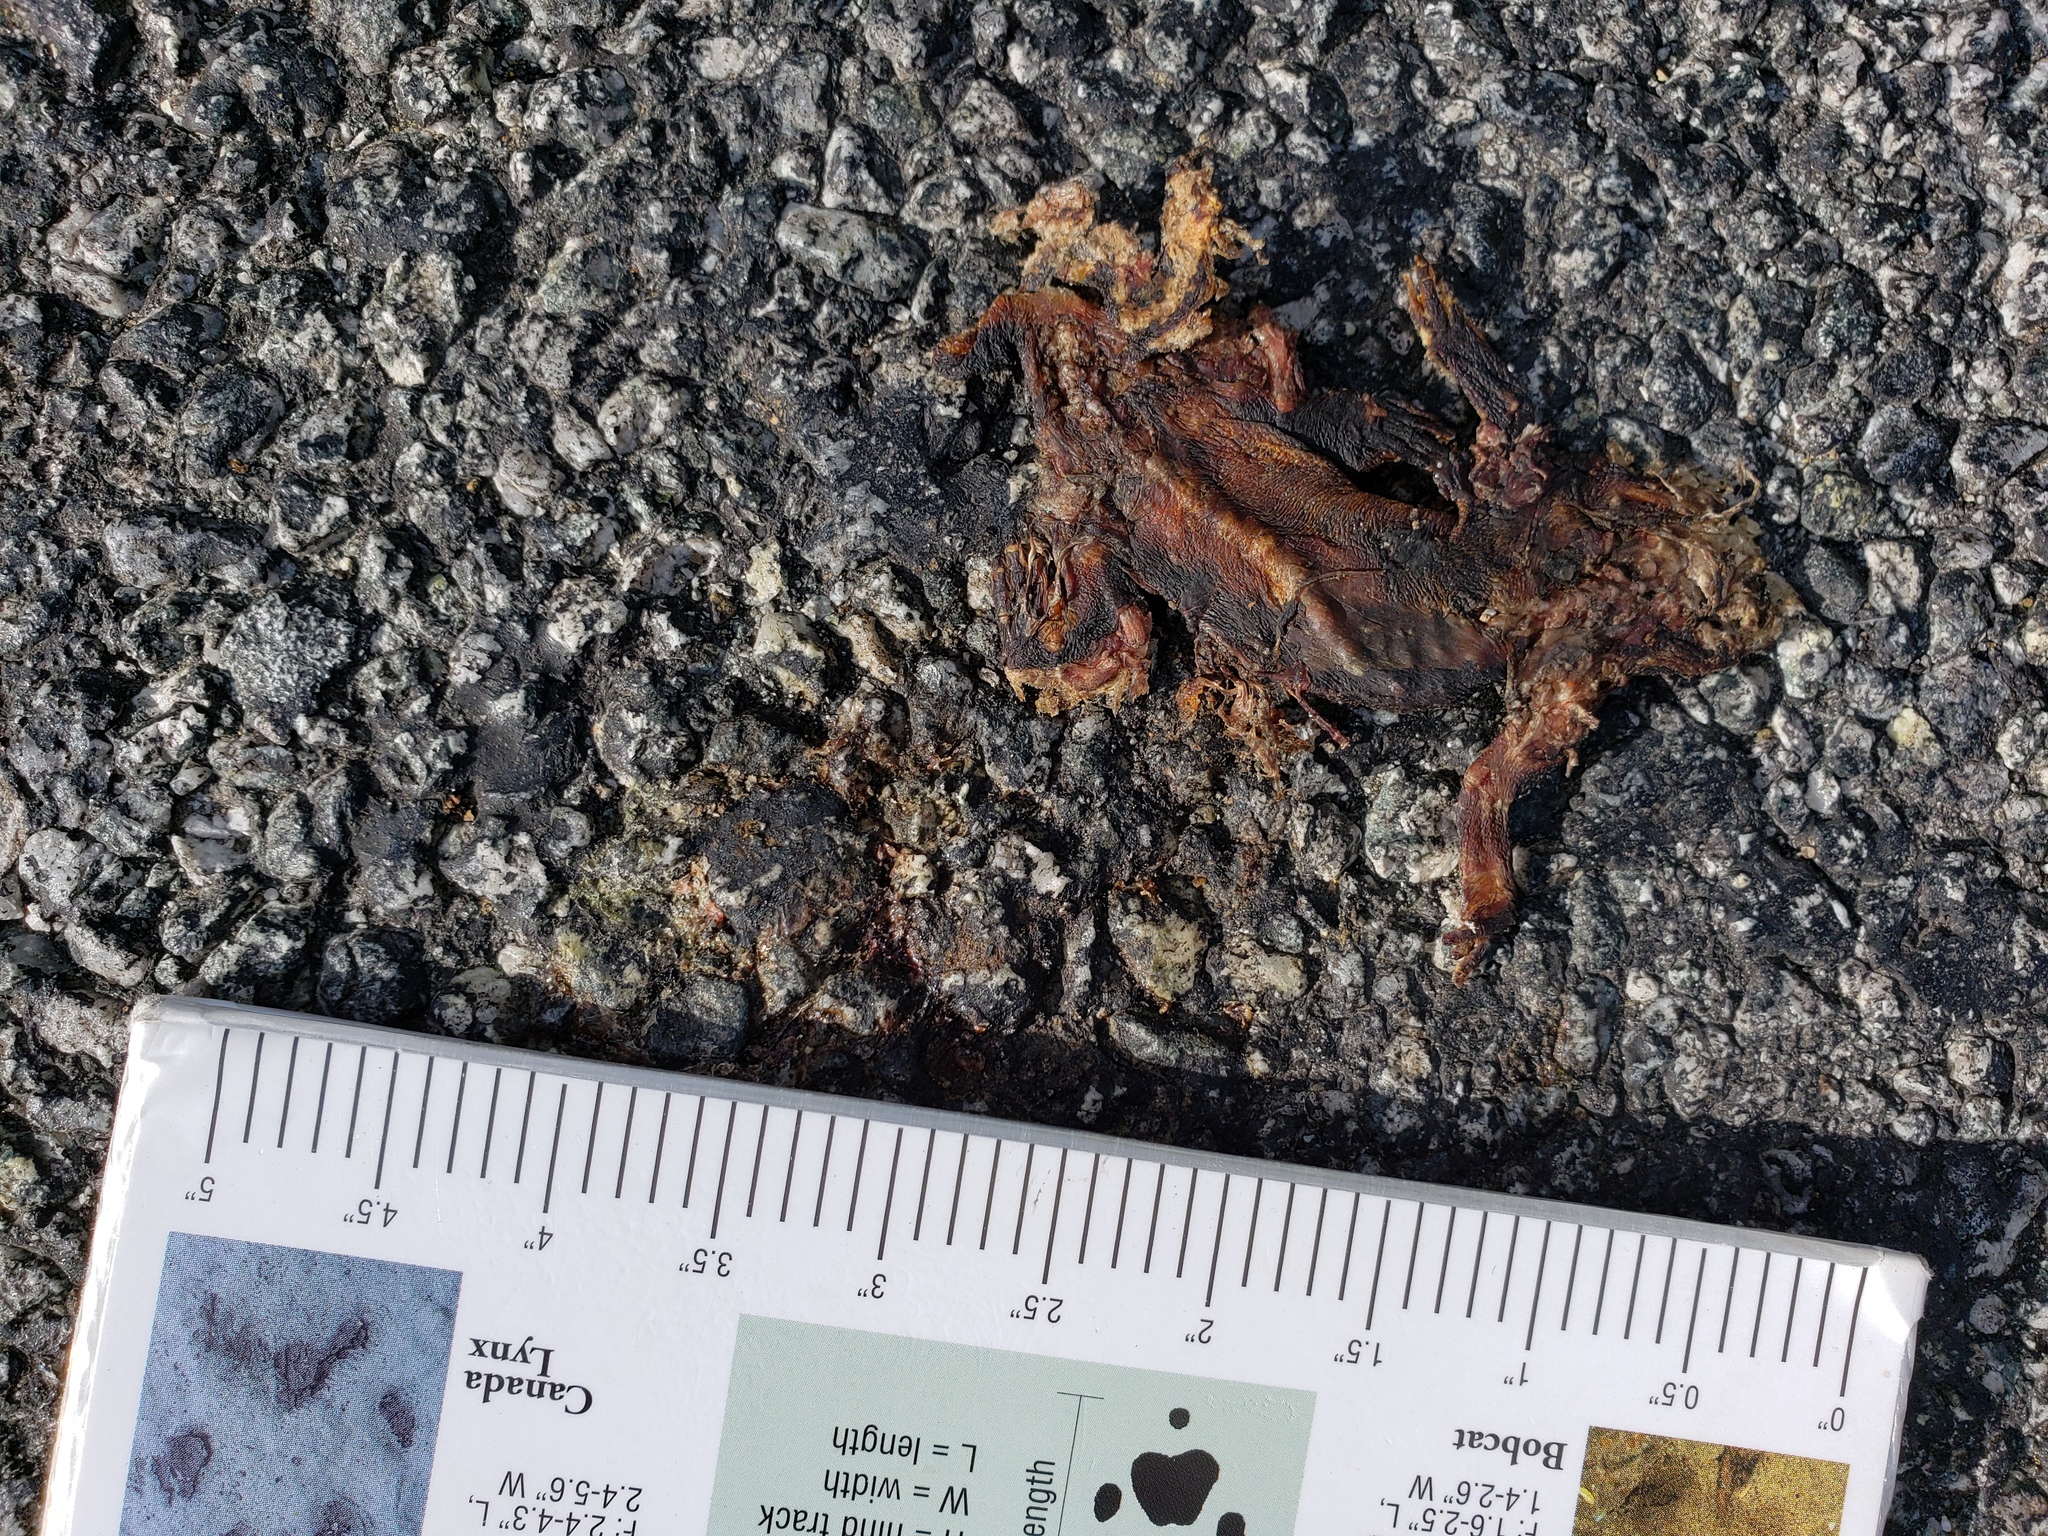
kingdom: Animalia
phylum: Chordata
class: Amphibia
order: Caudata
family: Salamandridae
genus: Taricha
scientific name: Taricha
